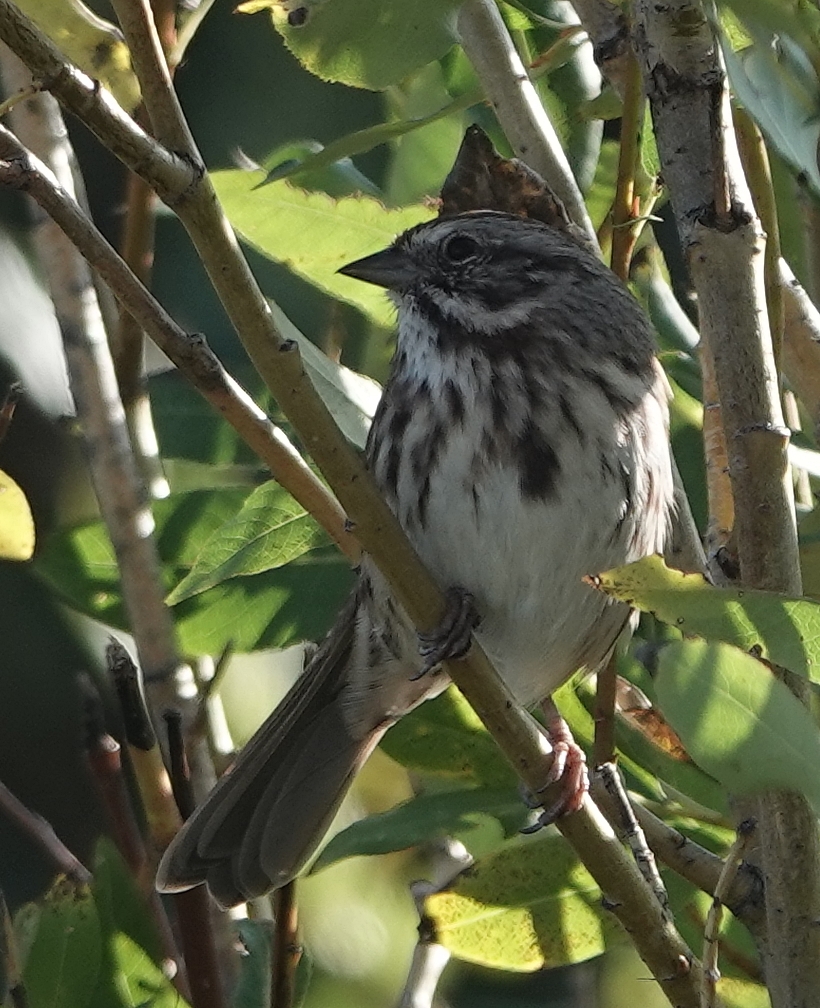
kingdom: Animalia
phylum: Chordata
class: Aves
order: Passeriformes
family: Passerellidae
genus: Melospiza
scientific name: Melospiza melodia
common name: Song sparrow
